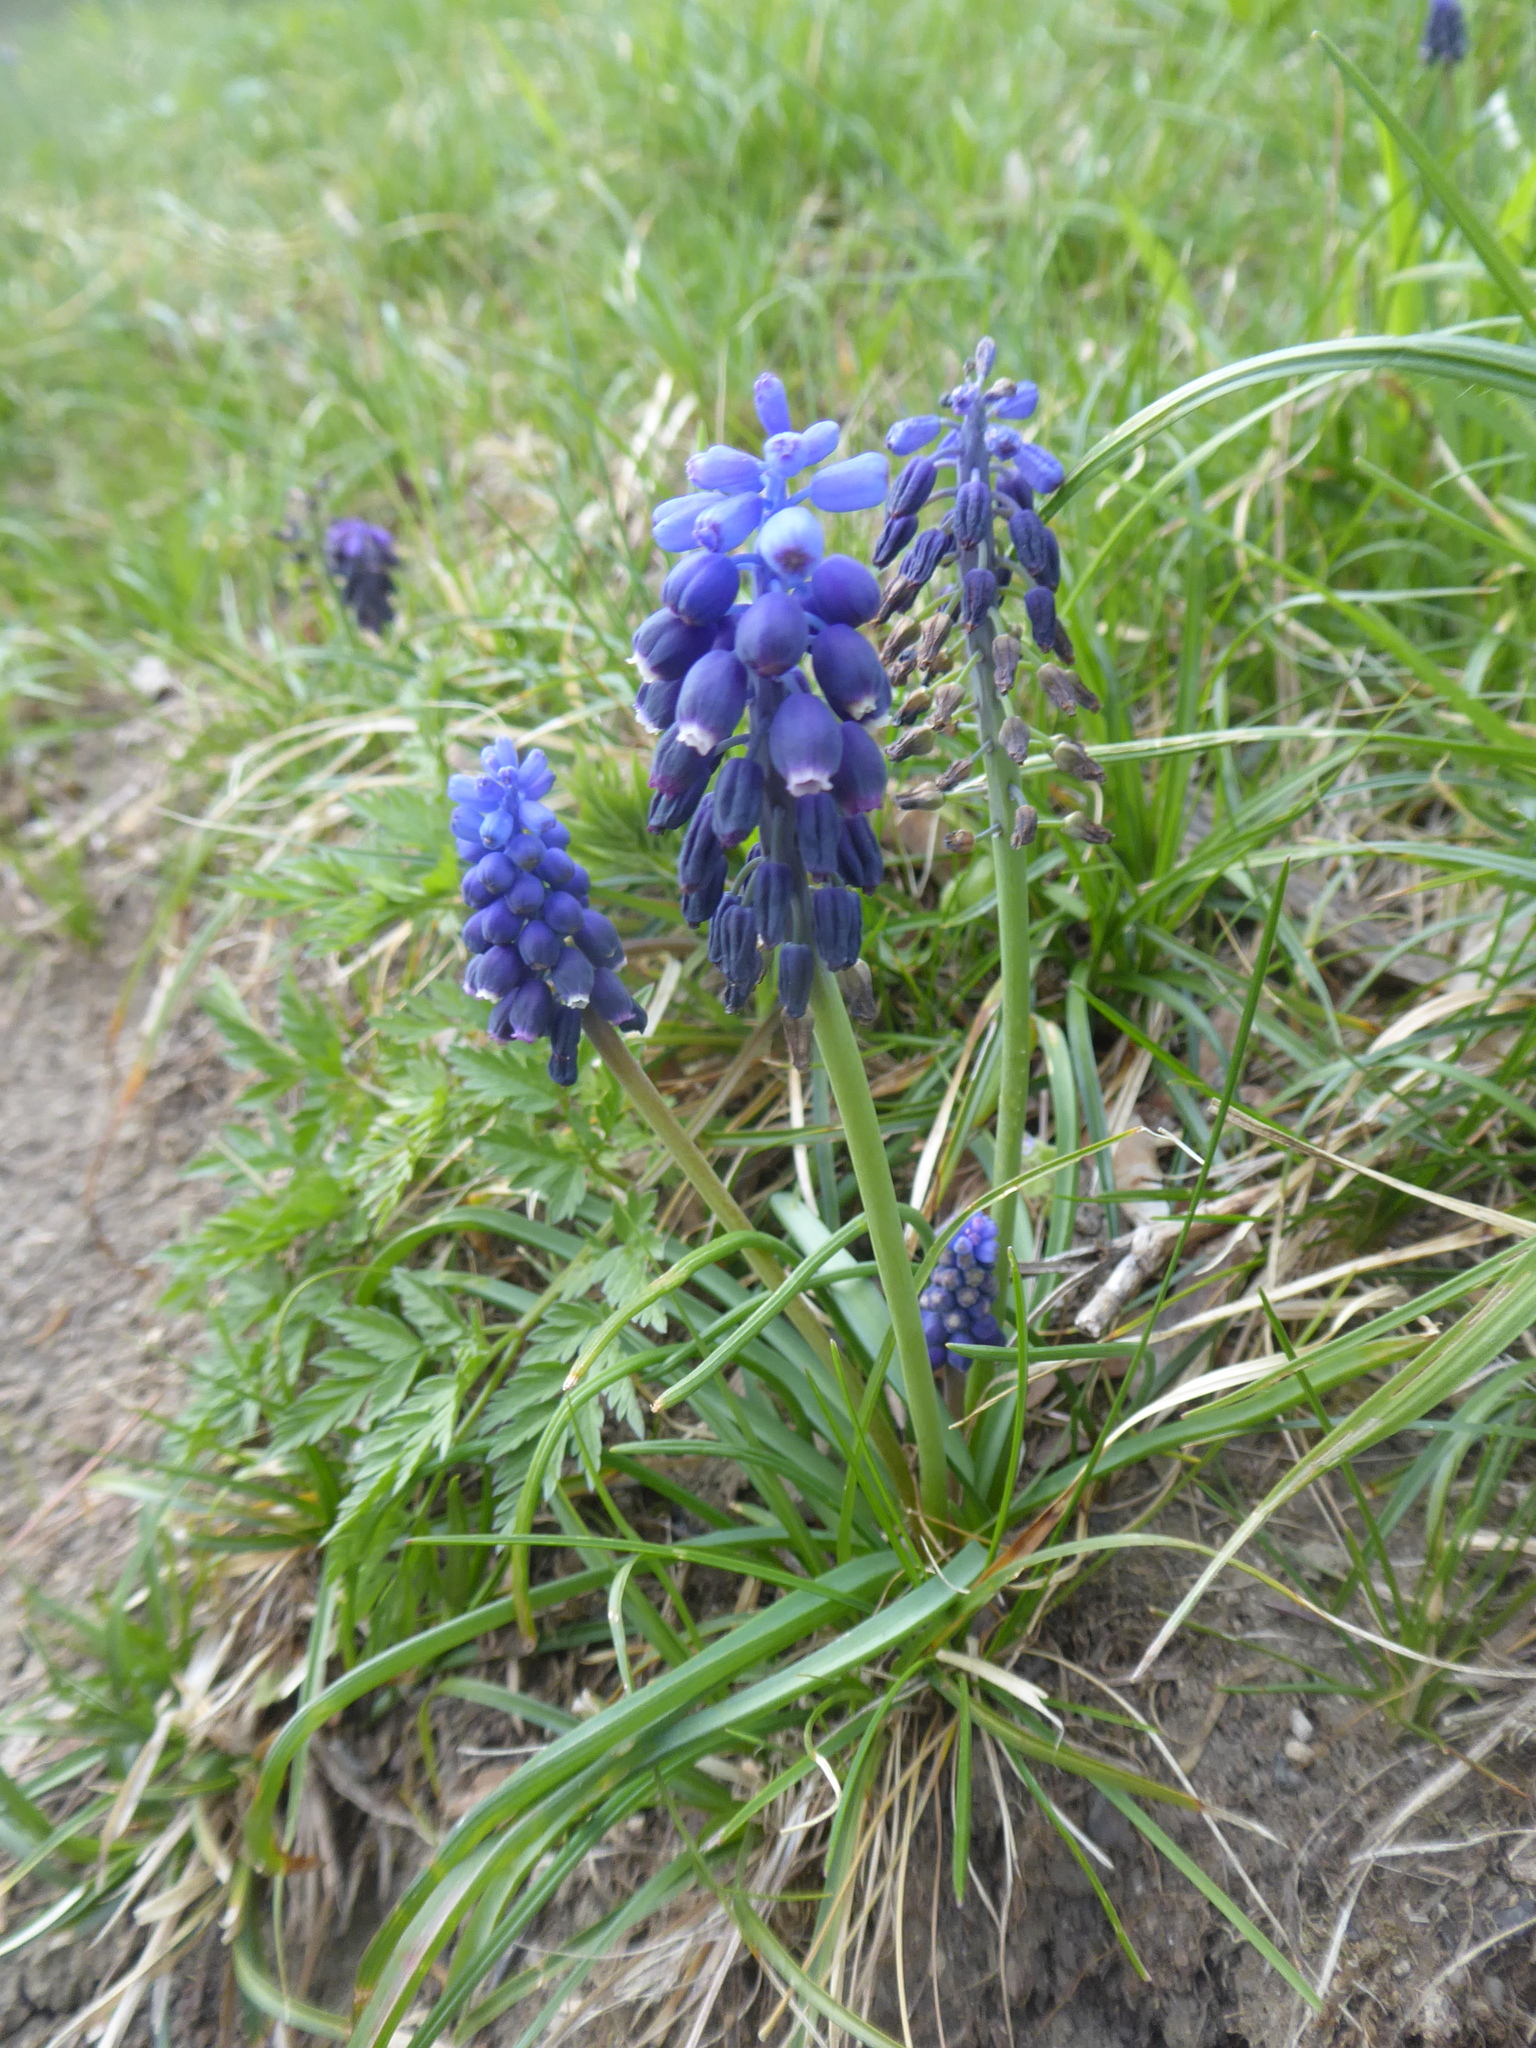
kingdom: Plantae
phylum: Tracheophyta
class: Liliopsida
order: Asparagales
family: Asparagaceae
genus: Muscari
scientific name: Muscari neglectum
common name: Grape-hyacinth
